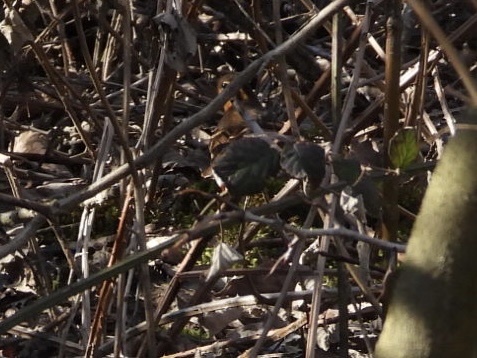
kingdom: Animalia
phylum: Chordata
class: Aves
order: Passeriformes
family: Turdidae
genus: Ixoreus
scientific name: Ixoreus naevius
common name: Varied thrush
